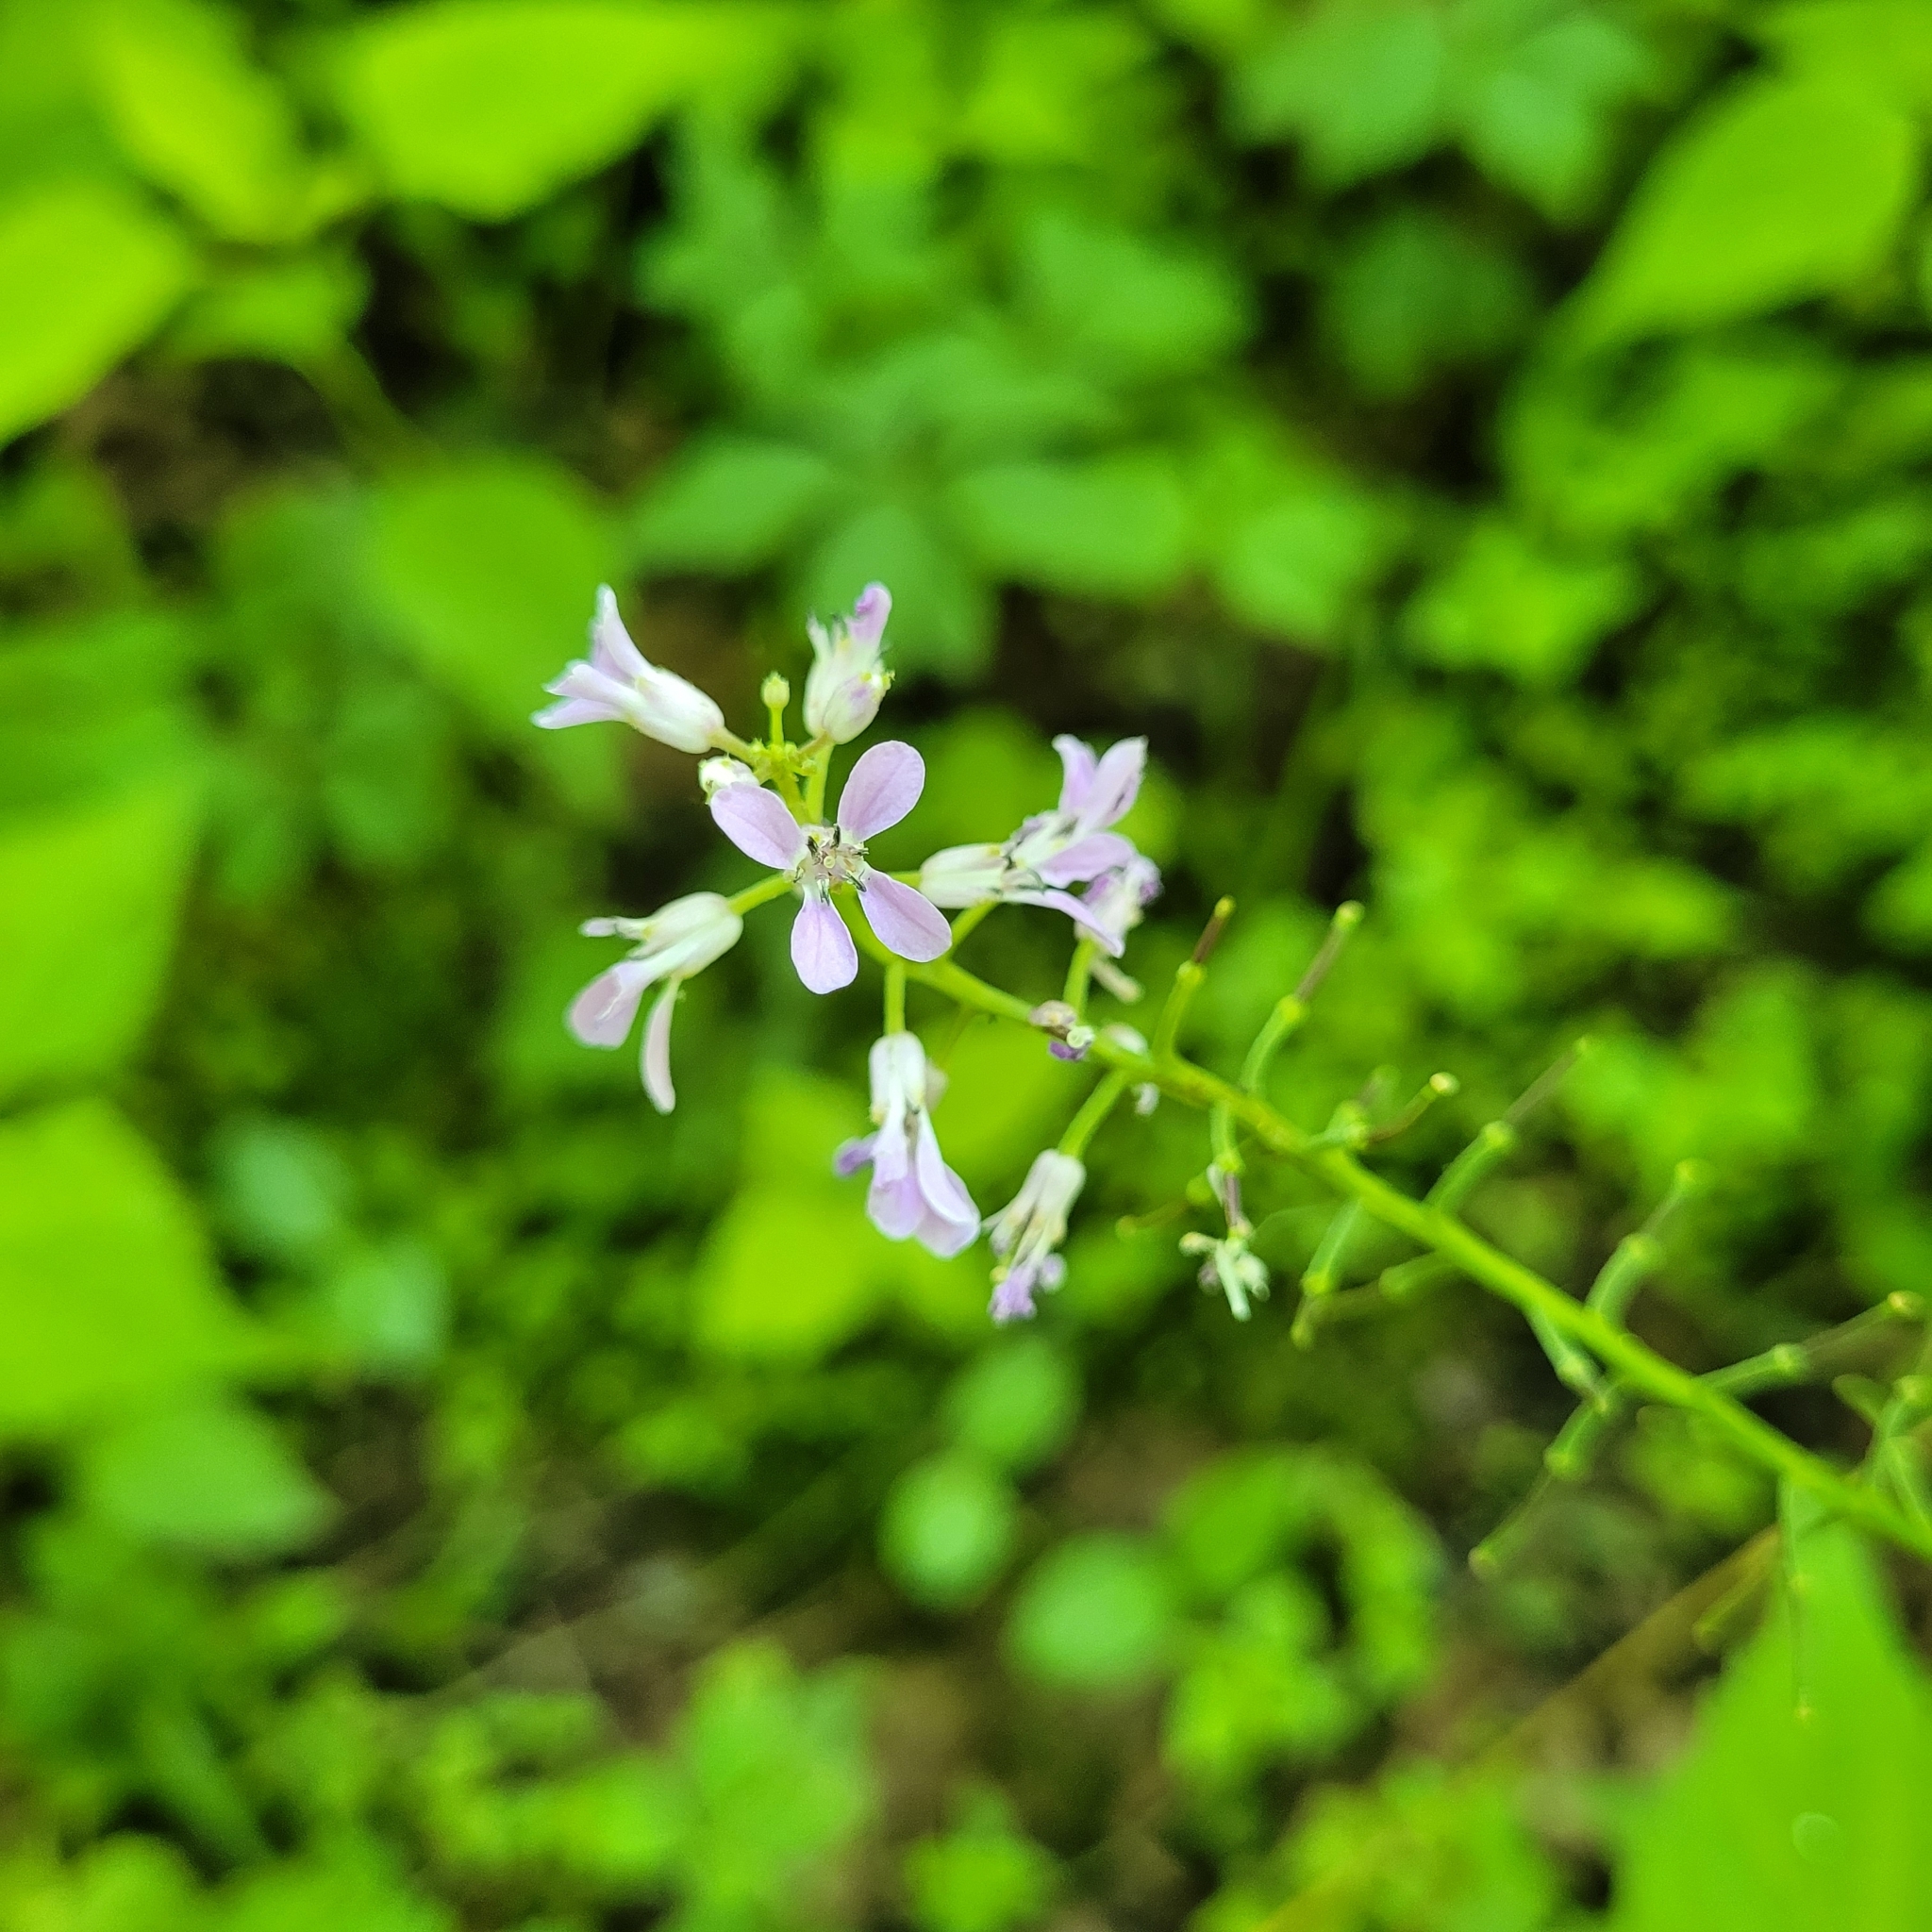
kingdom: Plantae
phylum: Tracheophyta
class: Magnoliopsida
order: Brassicales
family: Brassicaceae
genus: Iodanthus
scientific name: Iodanthus pinnatifidus
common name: Violet rocket
